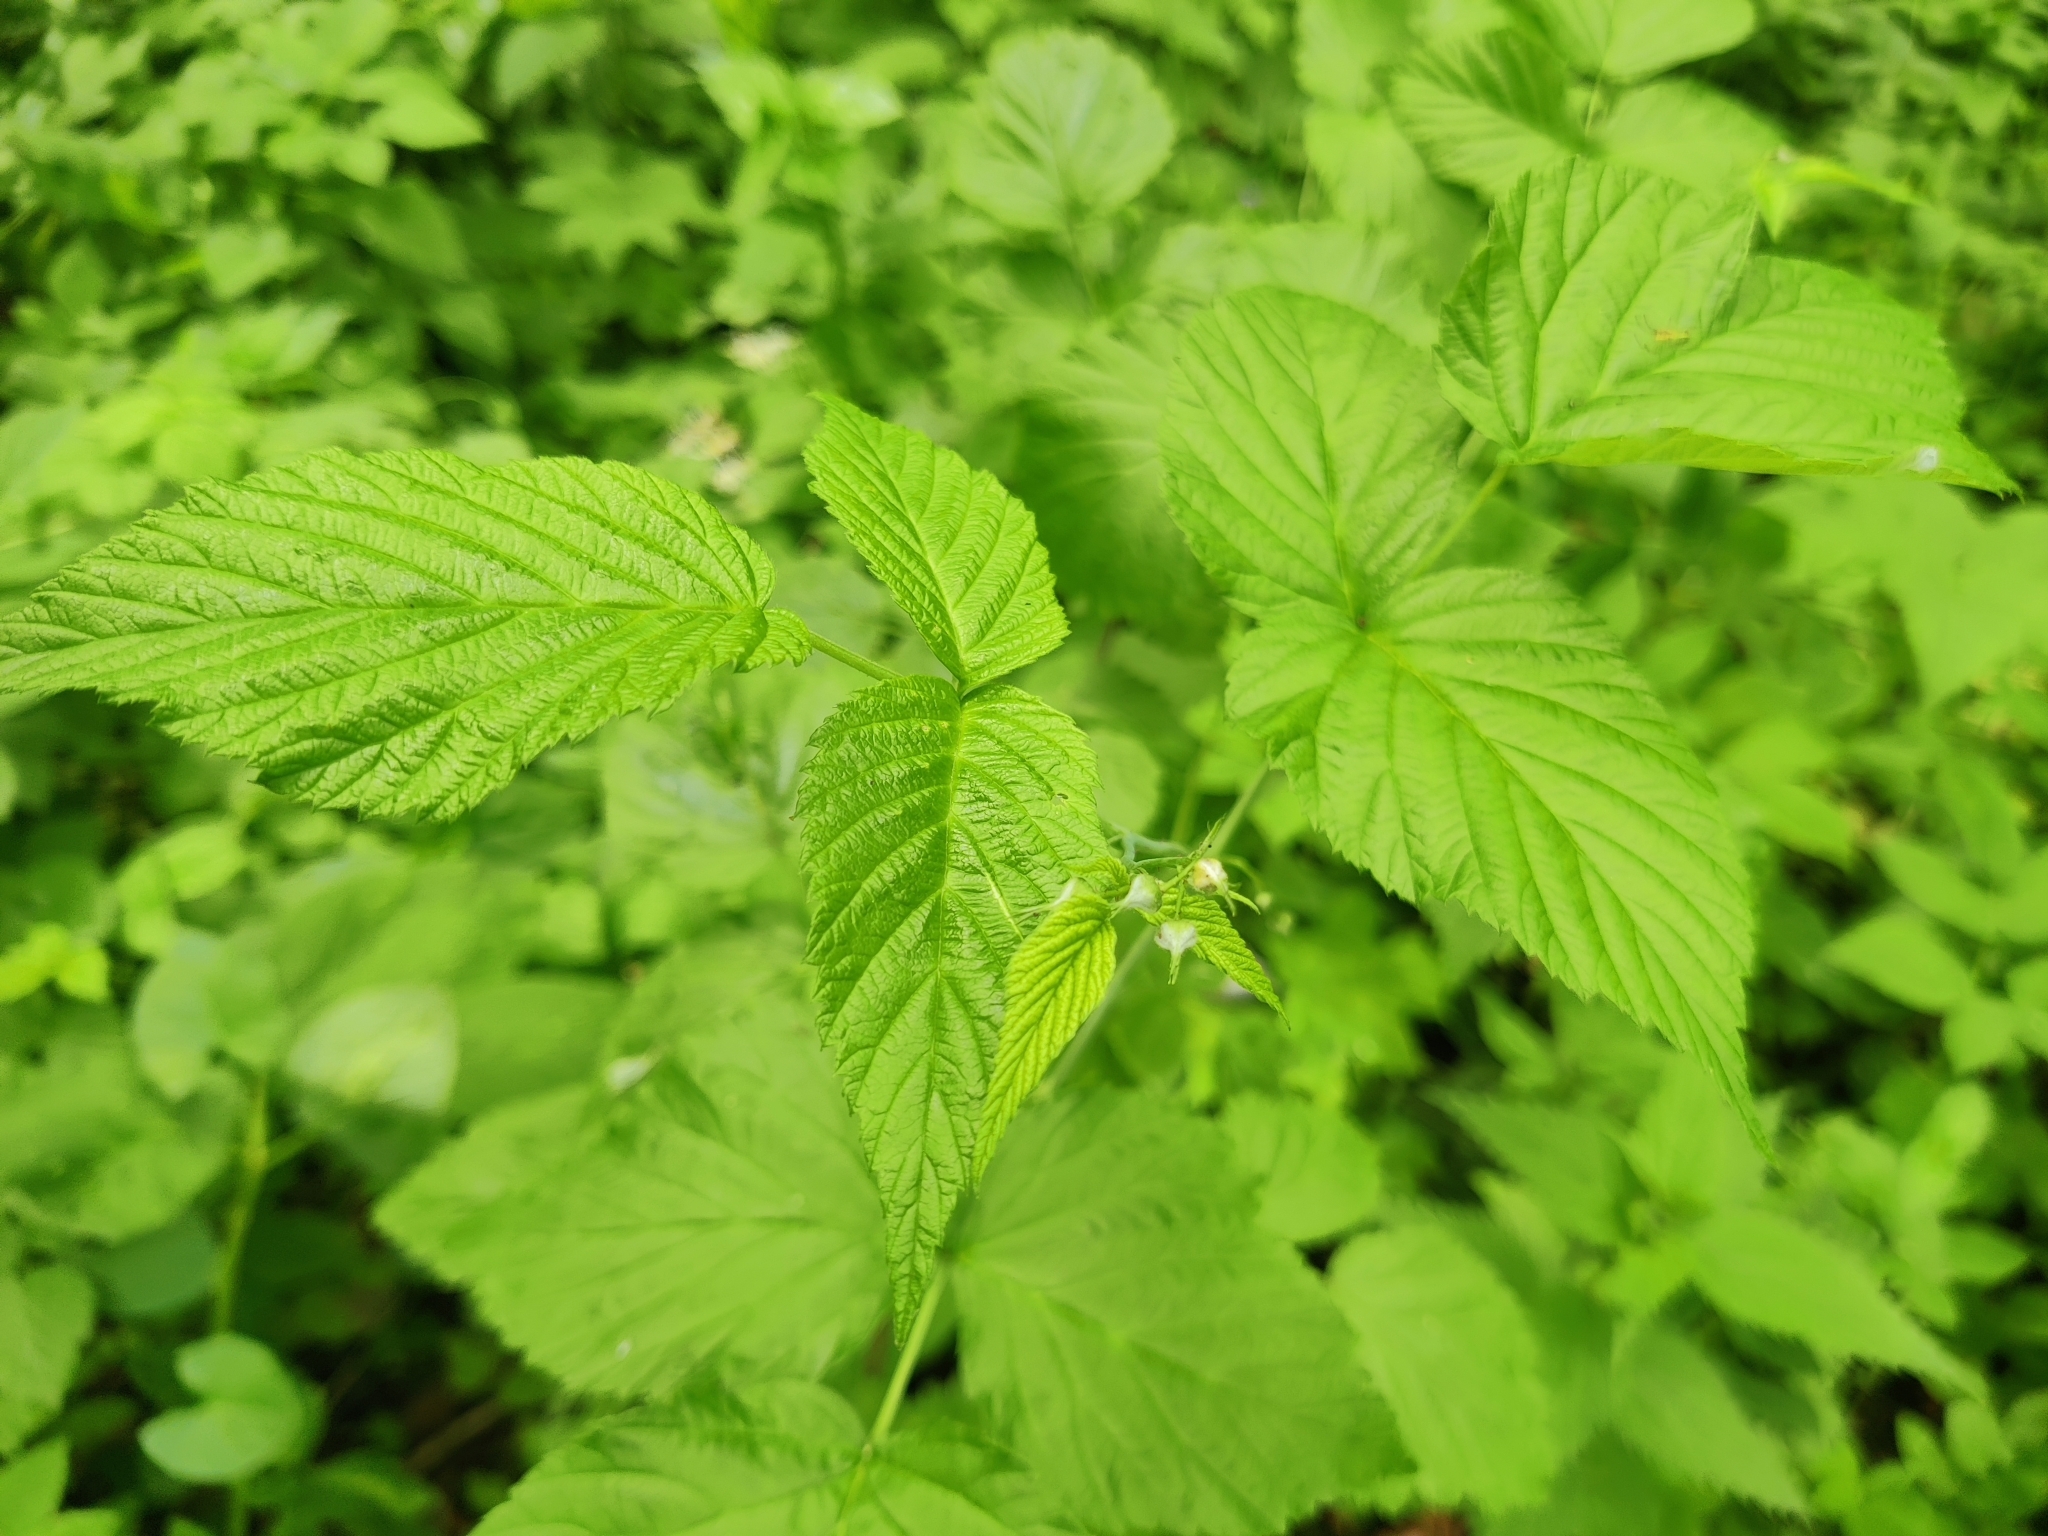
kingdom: Plantae
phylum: Tracheophyta
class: Magnoliopsida
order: Rosales
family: Rosaceae
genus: Rubus
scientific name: Rubus idaeus
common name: Raspberry
